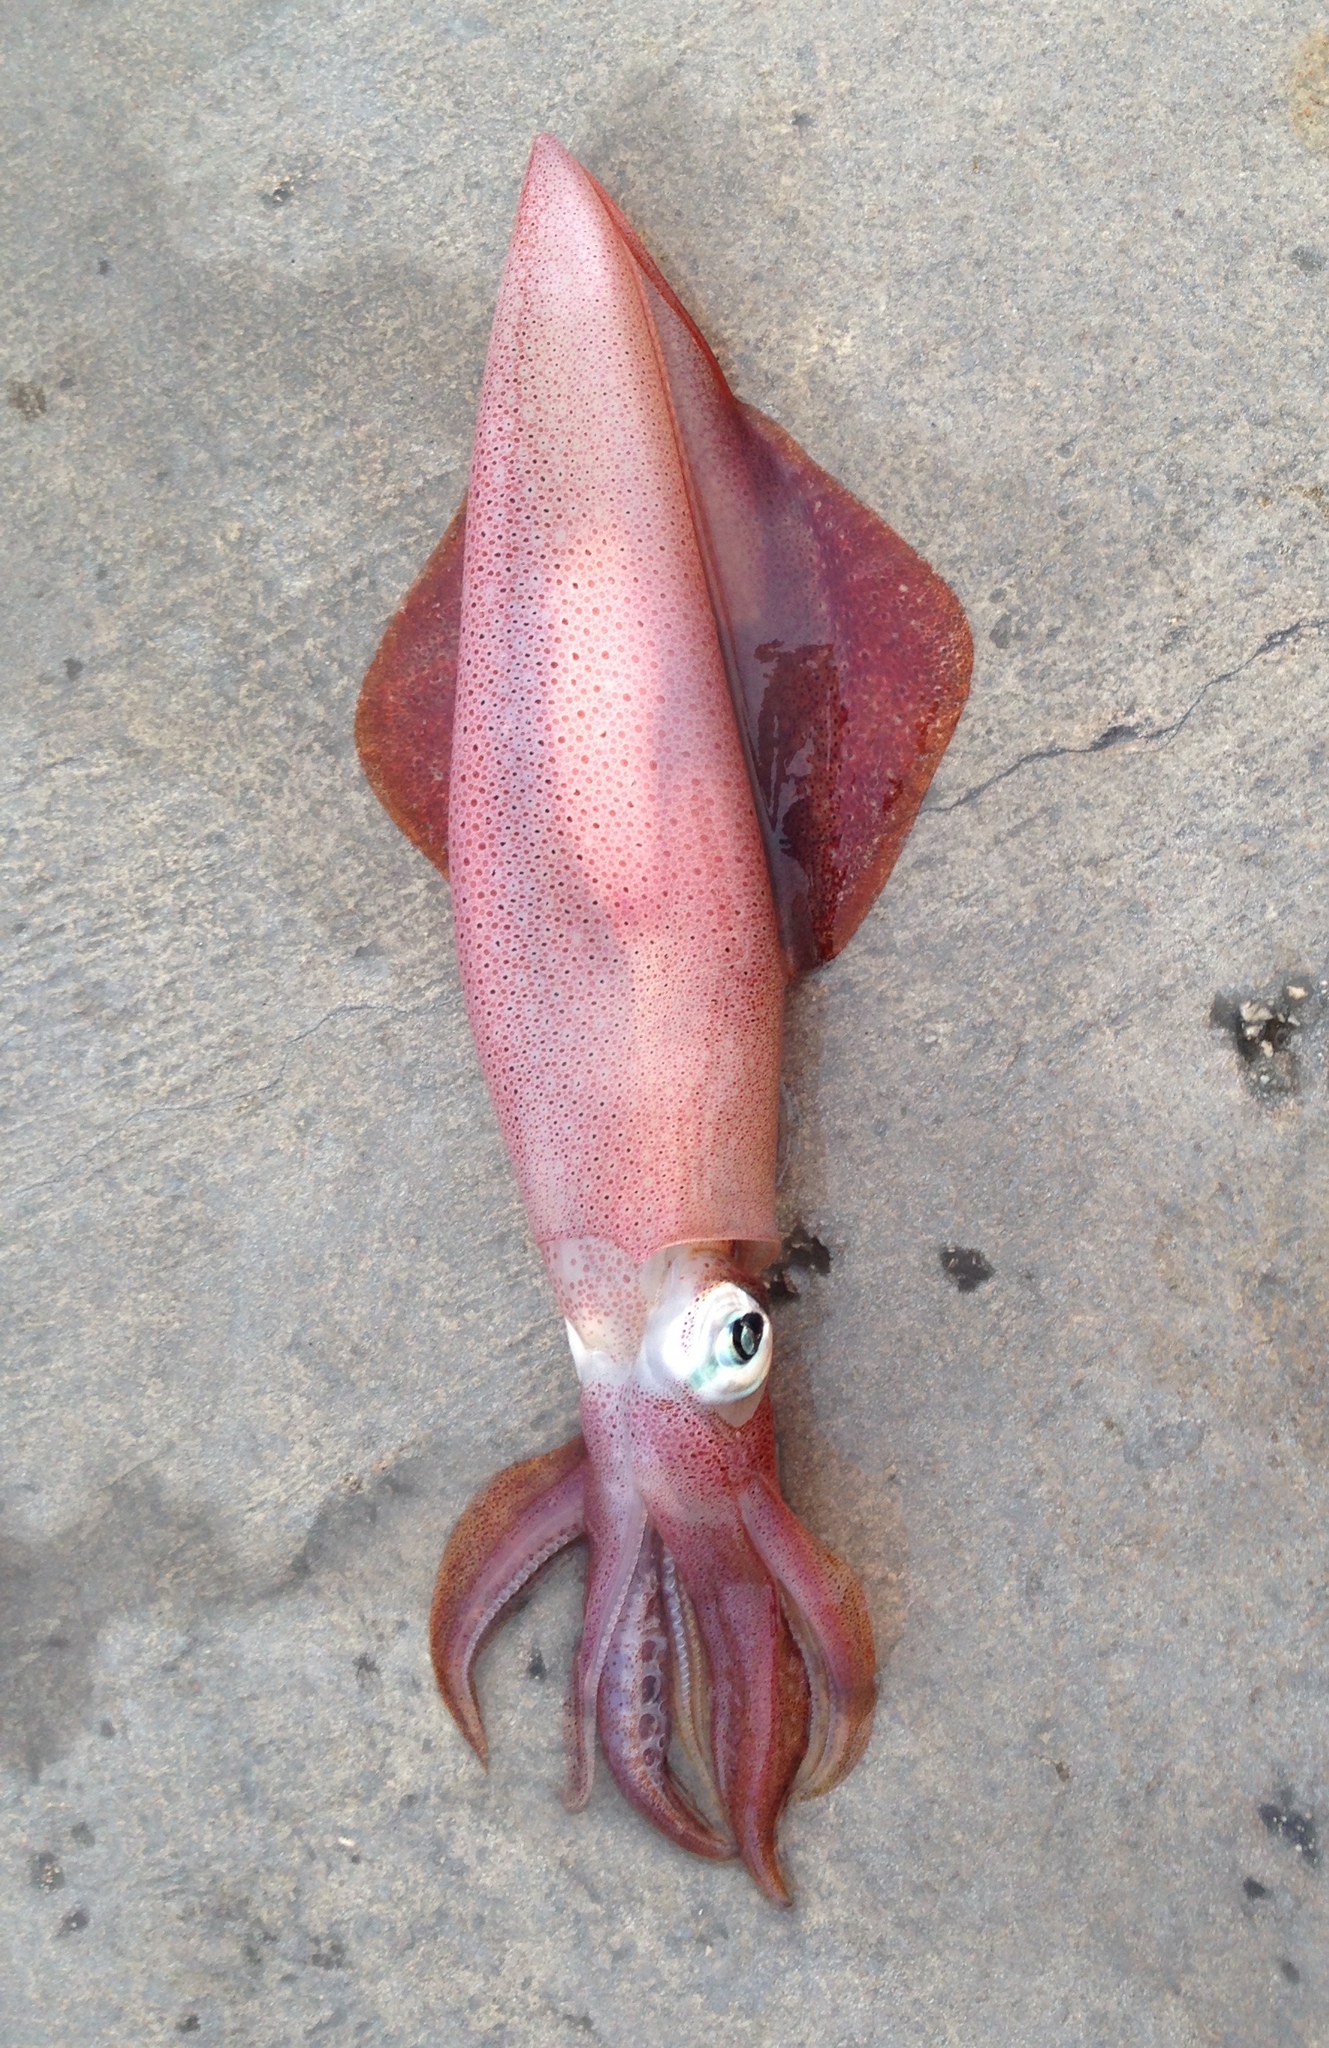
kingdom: Animalia
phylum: Mollusca
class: Cephalopoda
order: Myopsida
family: Loliginidae
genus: Loligo
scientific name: Loligo vulgaris
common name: European squid
